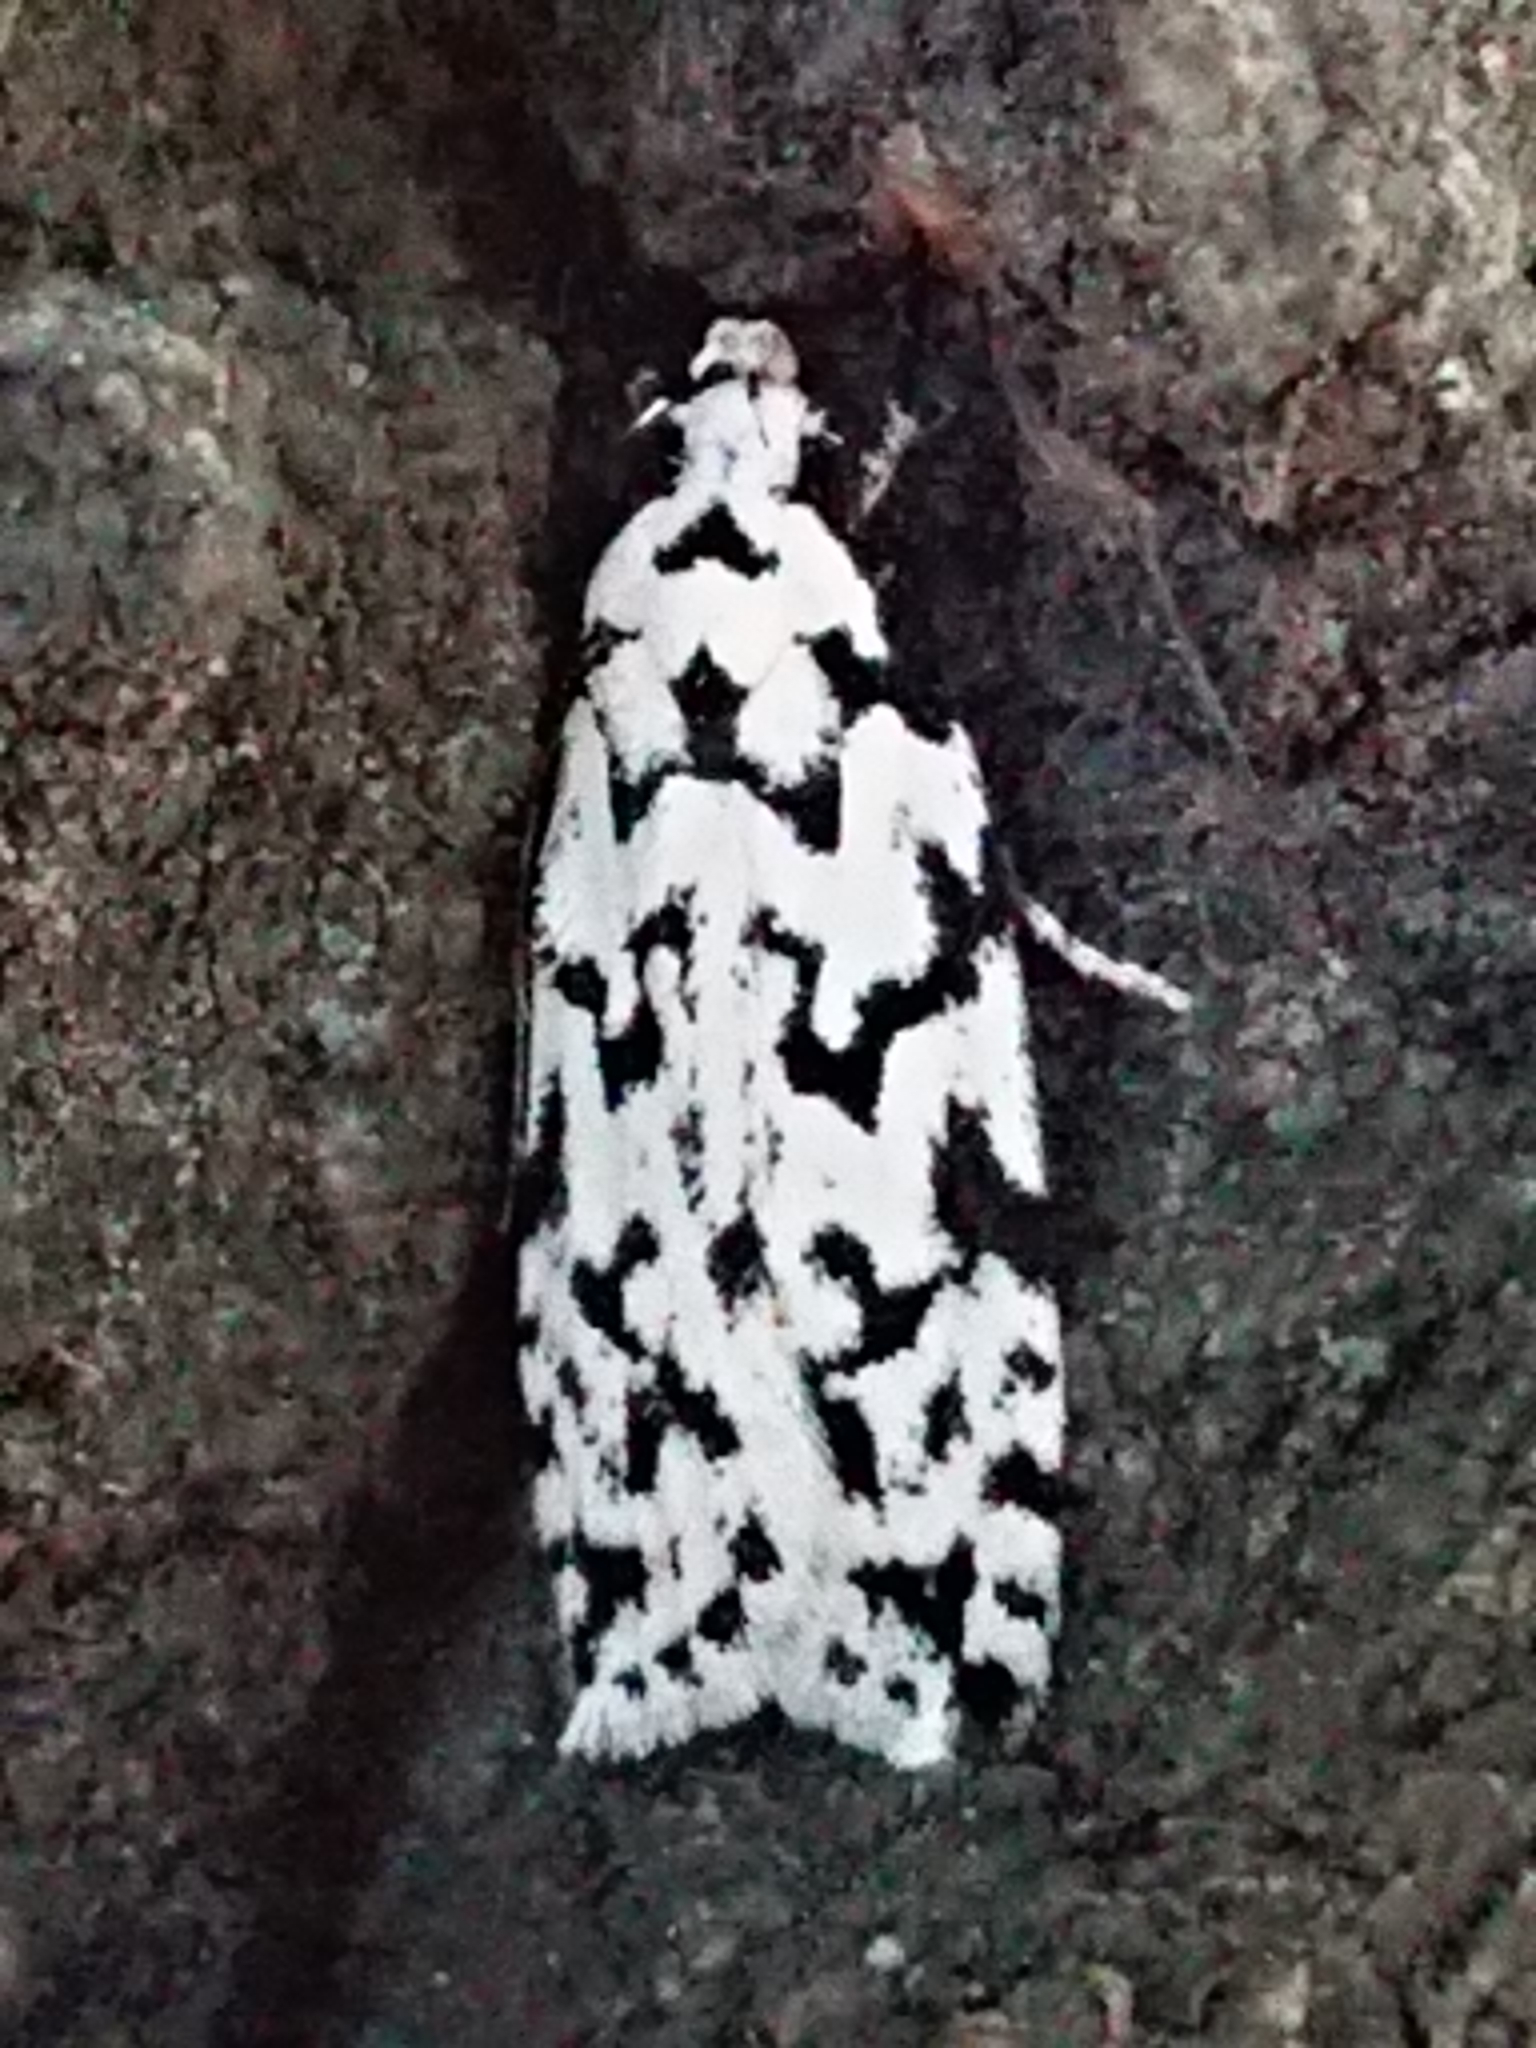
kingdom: Animalia
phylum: Arthropoda
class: Insecta
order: Lepidoptera
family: Oecophoridae
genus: Izatha
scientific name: Izatha katadiktya
